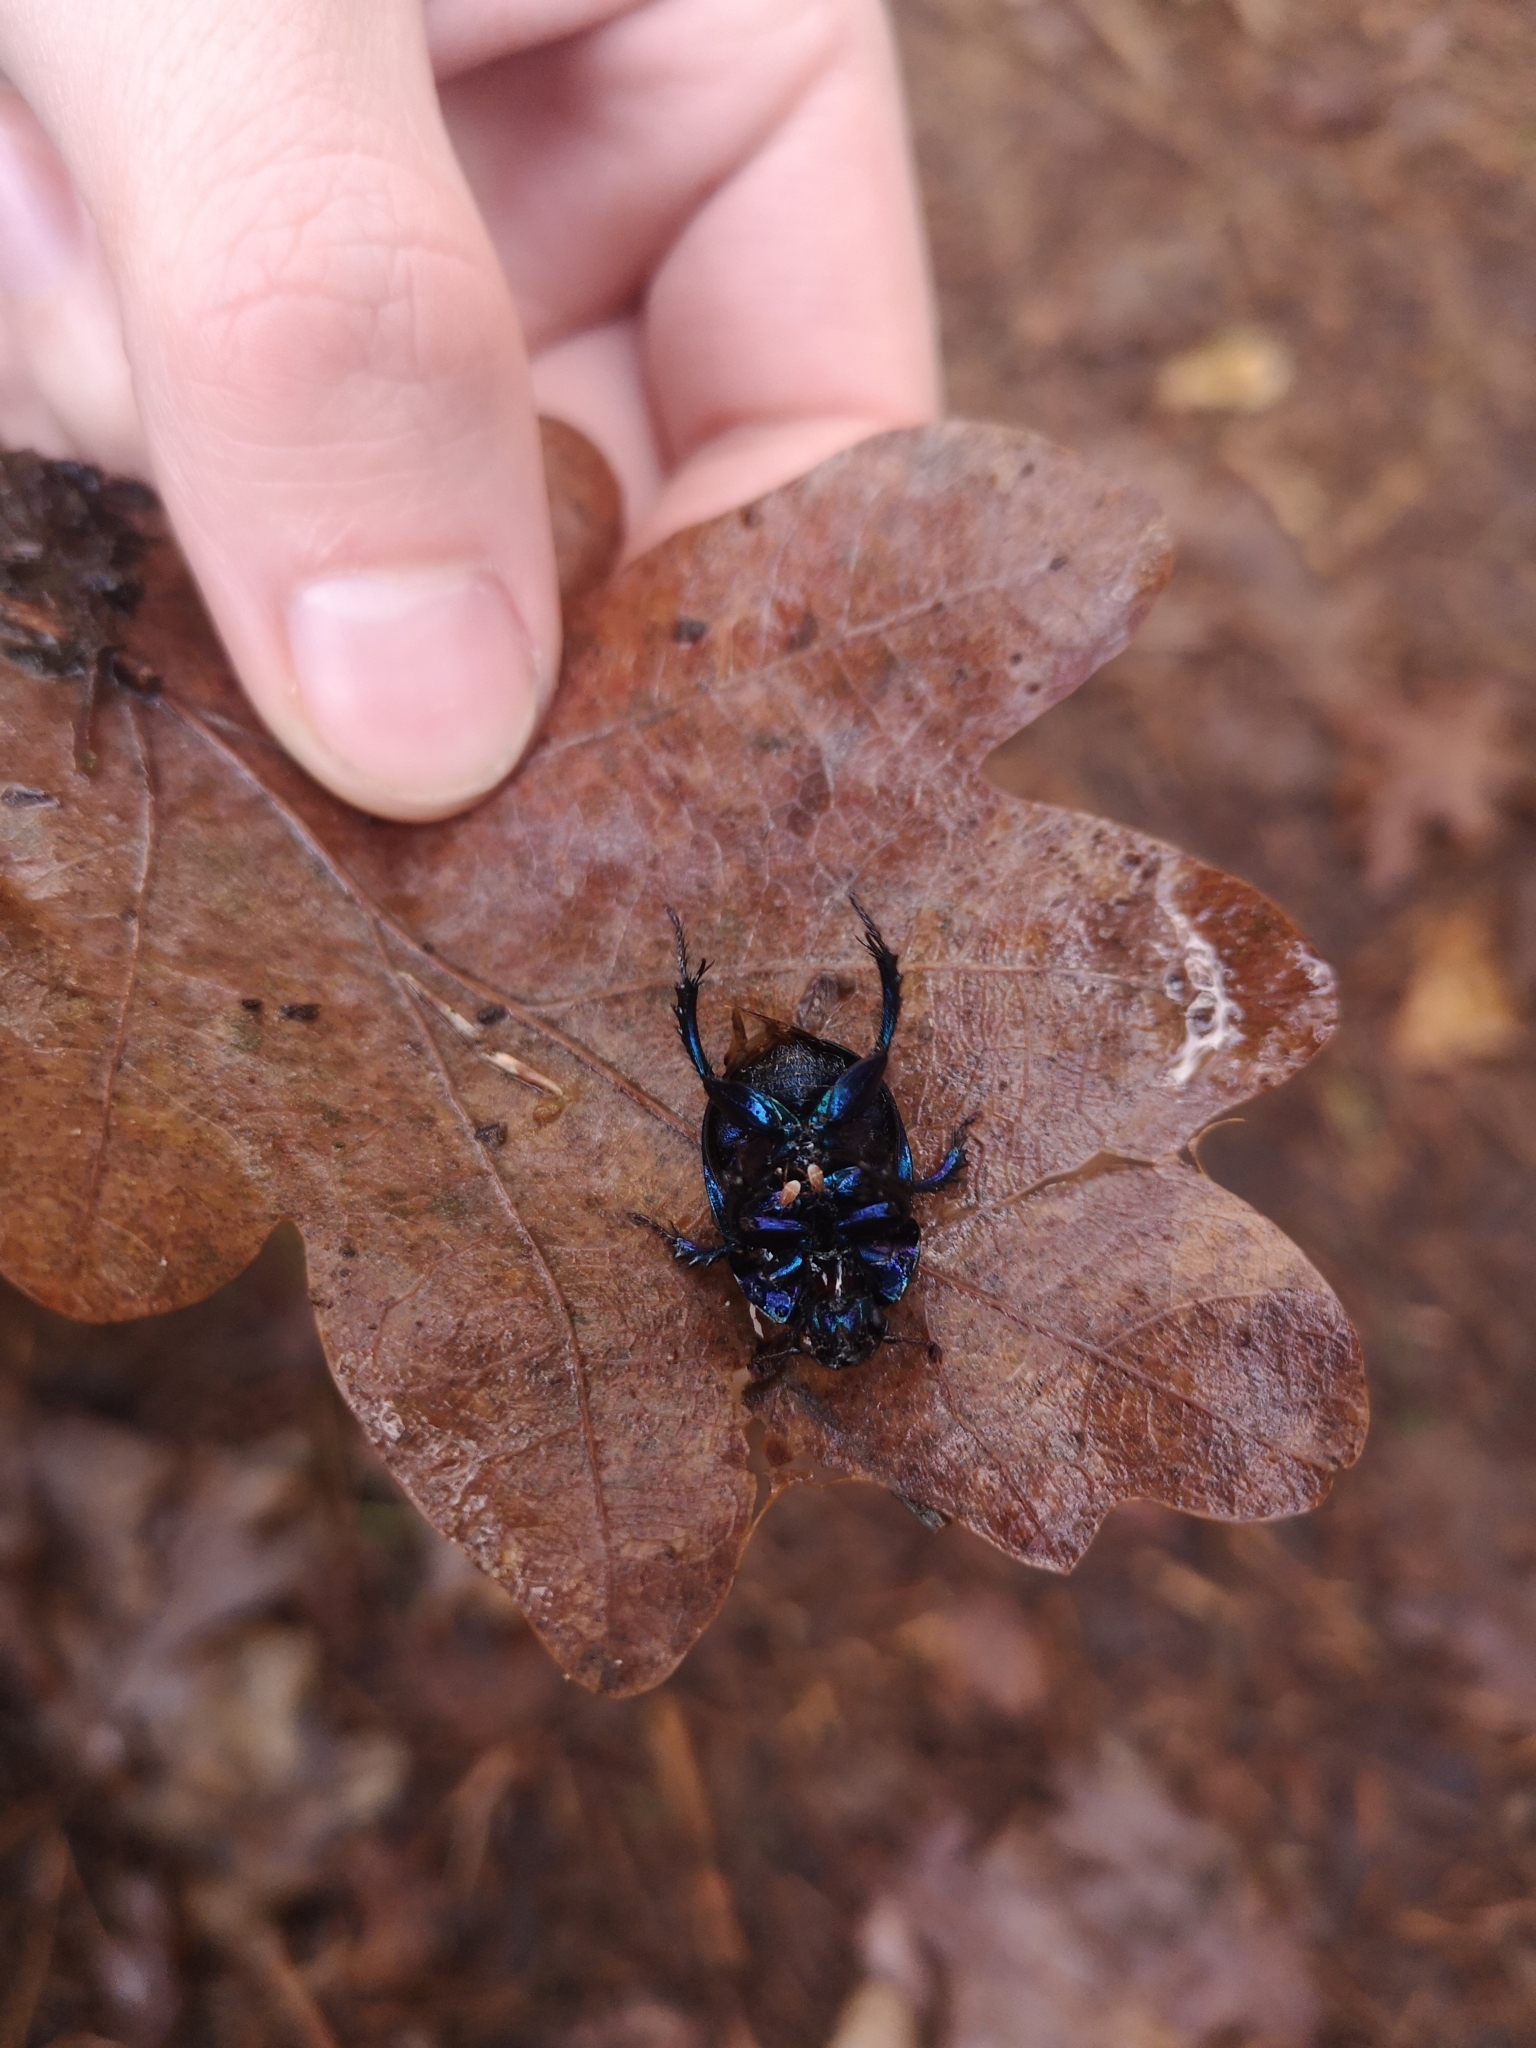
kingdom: Animalia
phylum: Arthropoda
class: Insecta
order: Coleoptera
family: Geotrupidae
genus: Anoplotrupes
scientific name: Anoplotrupes stercorosus
